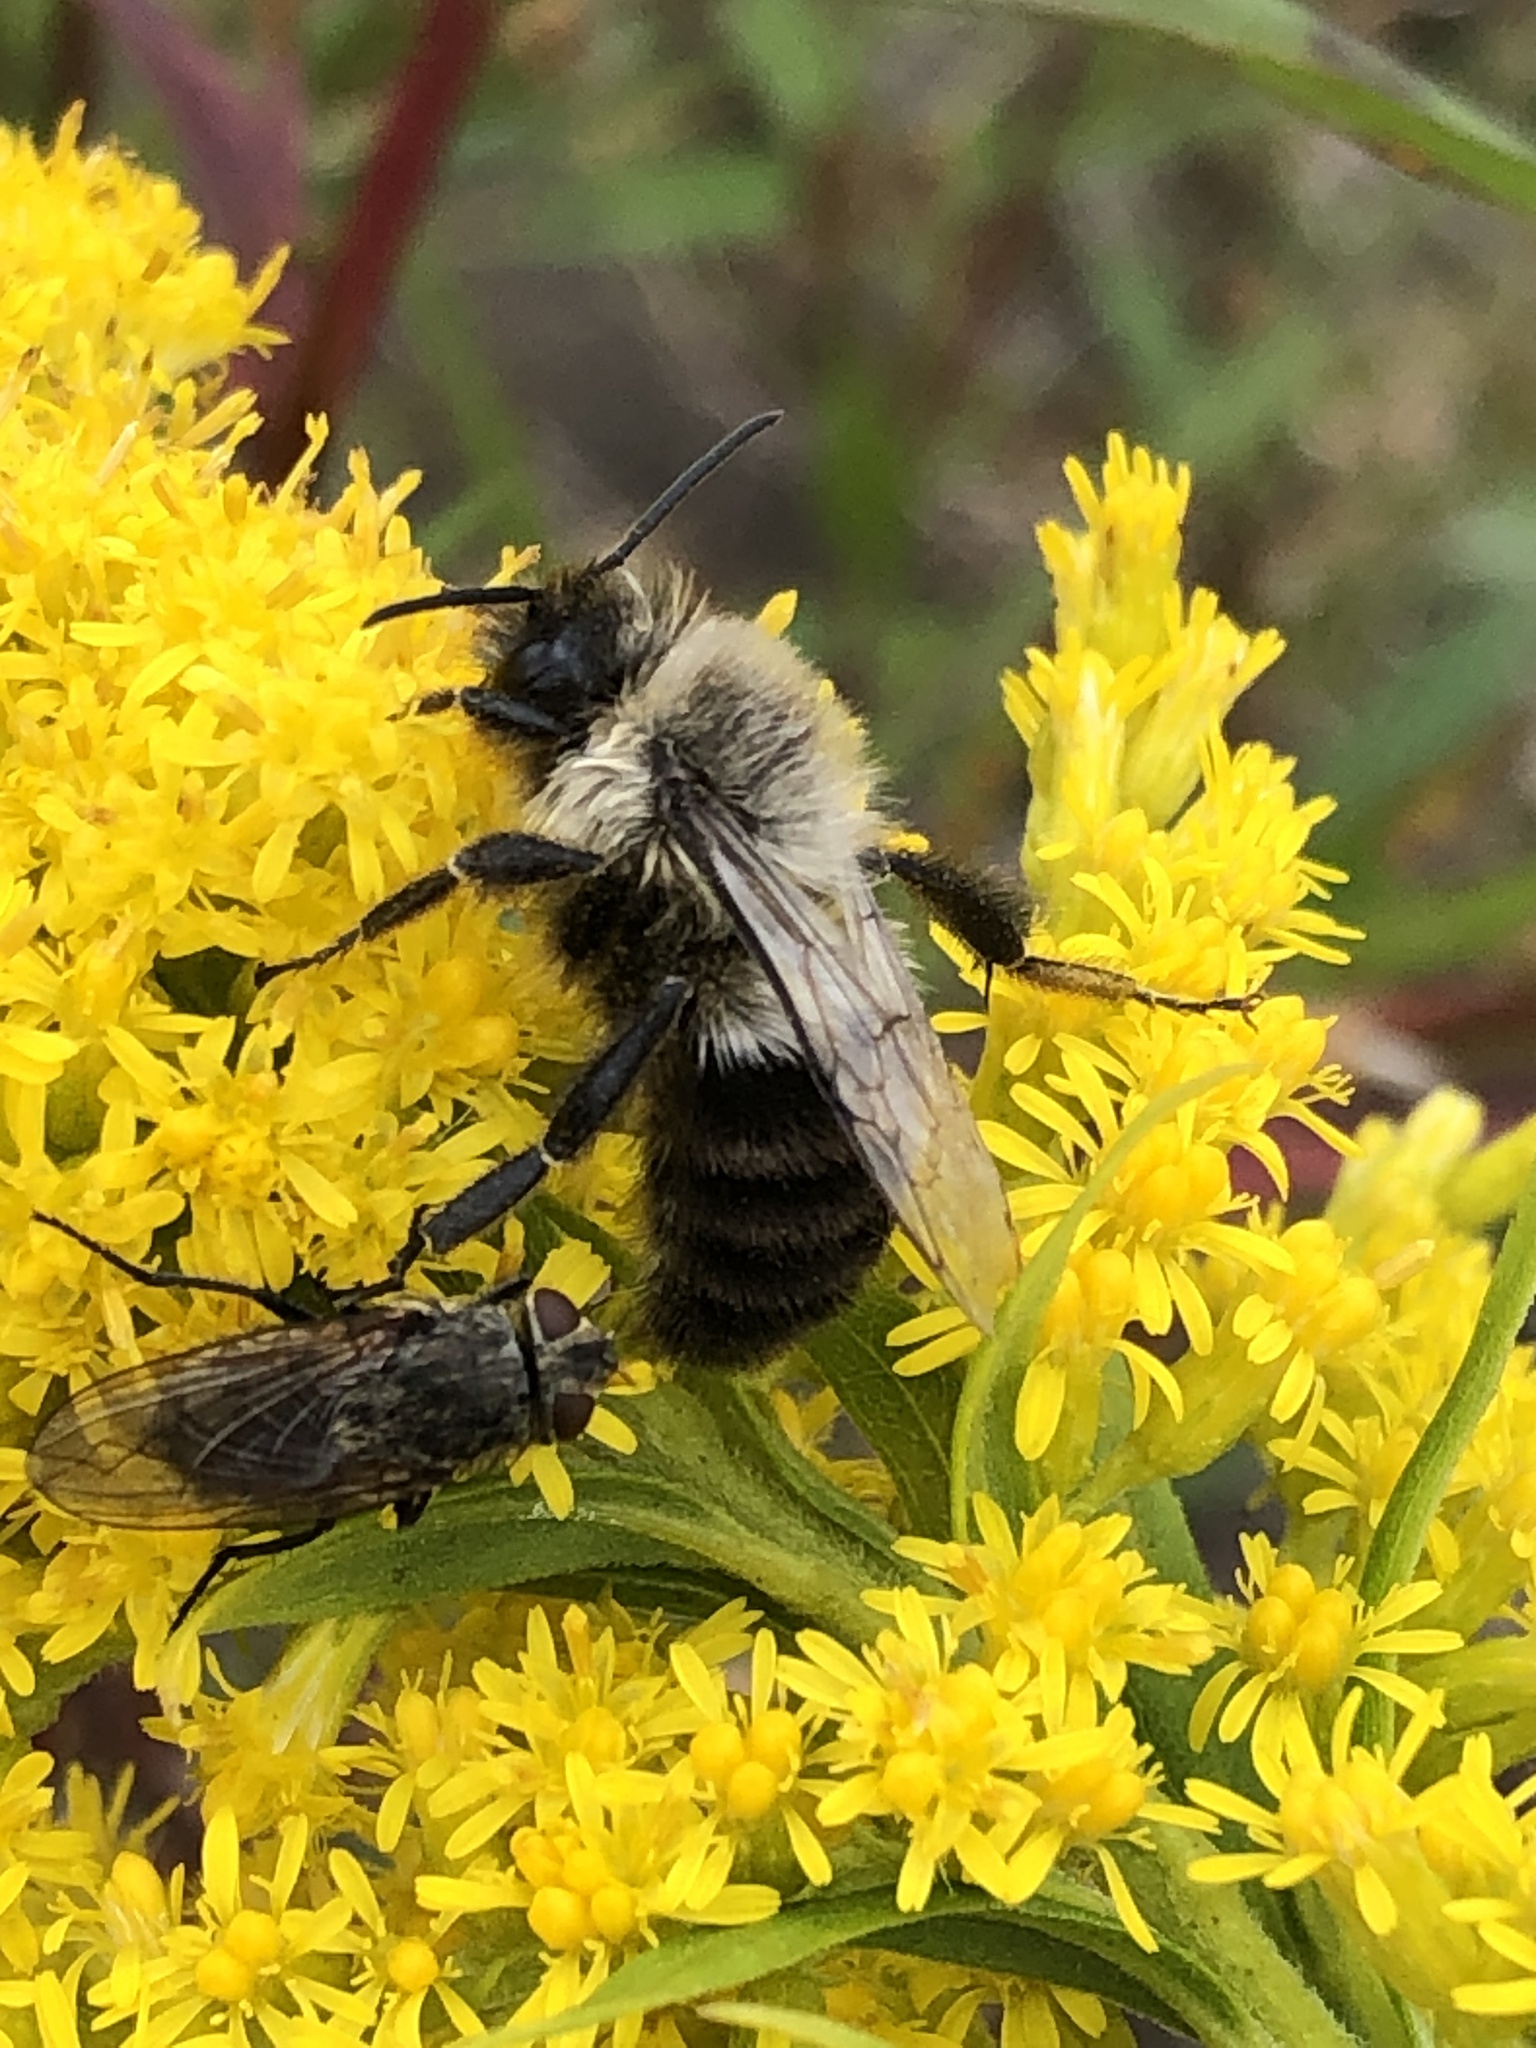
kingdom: Animalia
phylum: Arthropoda
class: Insecta
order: Hymenoptera
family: Apidae
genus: Bombus
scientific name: Bombus impatiens
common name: Common eastern bumble bee
